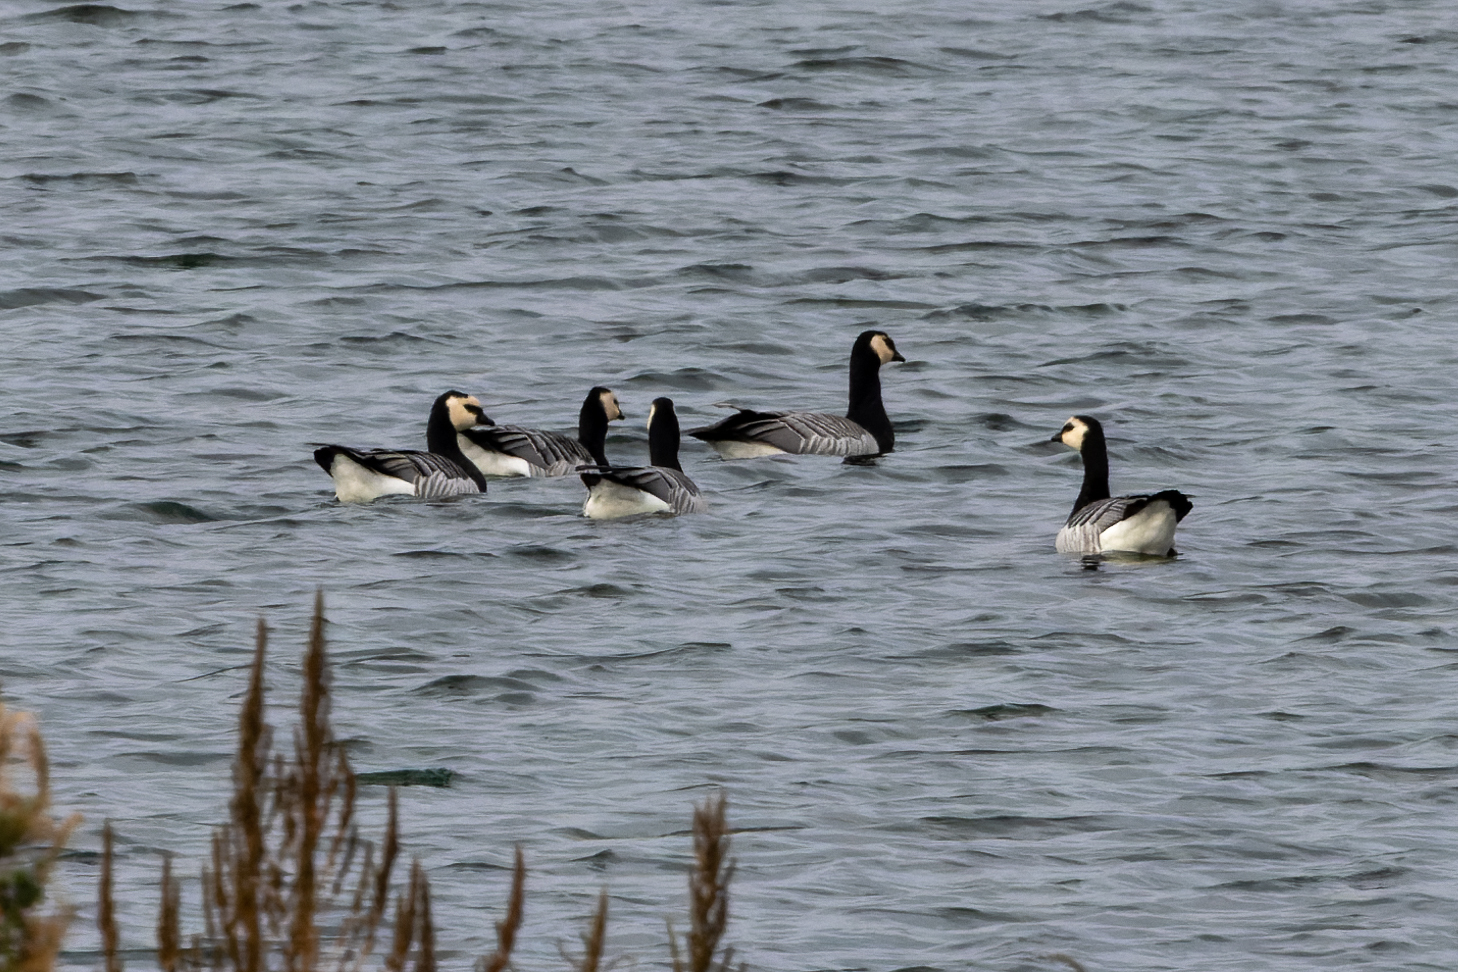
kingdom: Animalia
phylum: Chordata
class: Aves
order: Anseriformes
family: Anatidae
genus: Branta
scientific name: Branta leucopsis
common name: Barnacle goose
